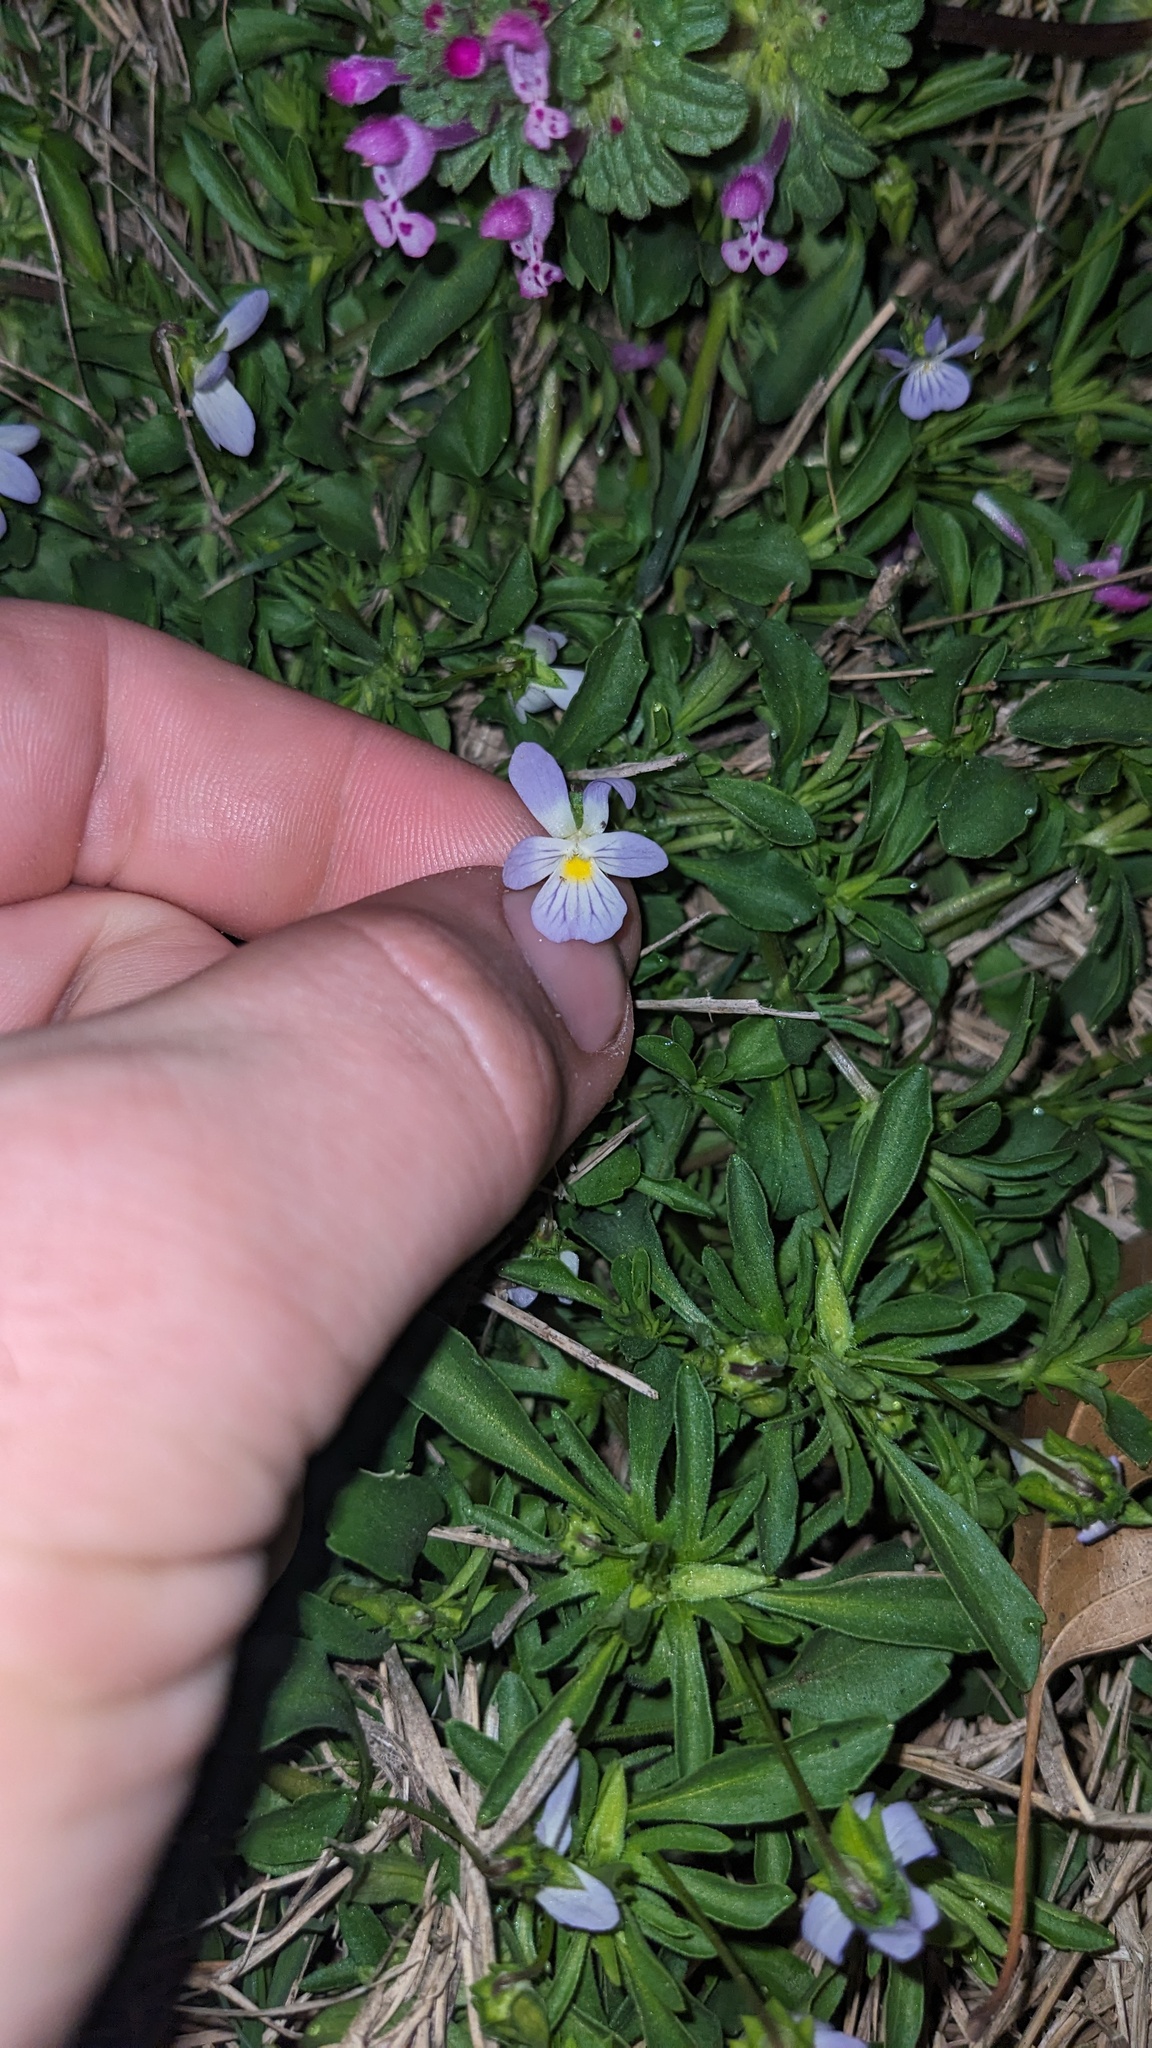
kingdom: Plantae
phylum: Tracheophyta
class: Magnoliopsida
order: Malpighiales
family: Violaceae
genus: Viola
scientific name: Viola rafinesquei
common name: American field pansy
